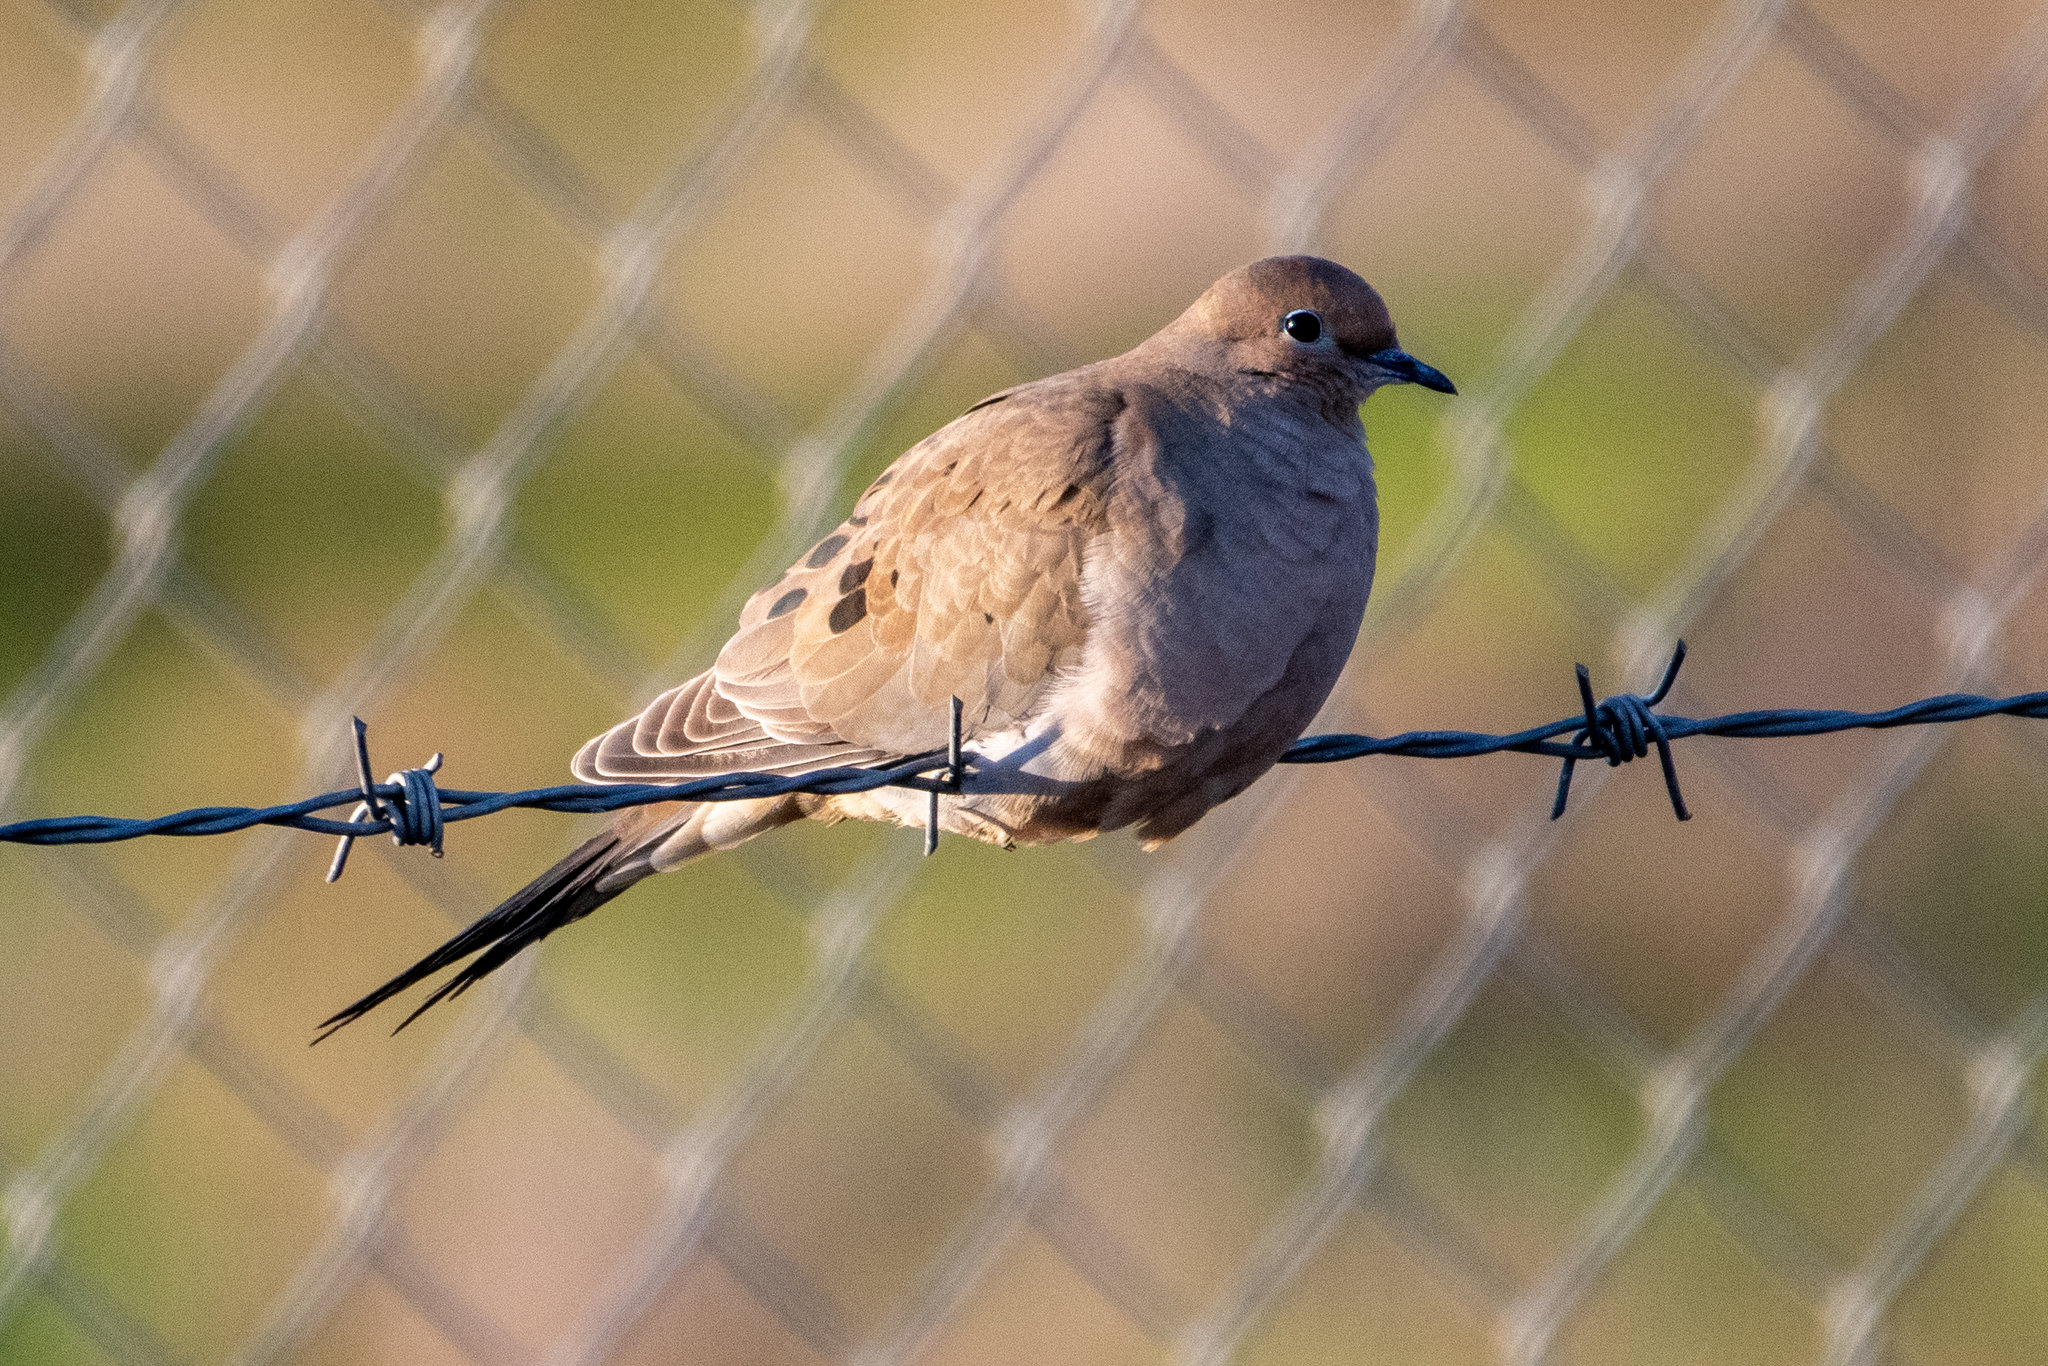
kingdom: Animalia
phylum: Chordata
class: Aves
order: Columbiformes
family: Columbidae
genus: Zenaida
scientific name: Zenaida macroura
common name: Mourning dove
